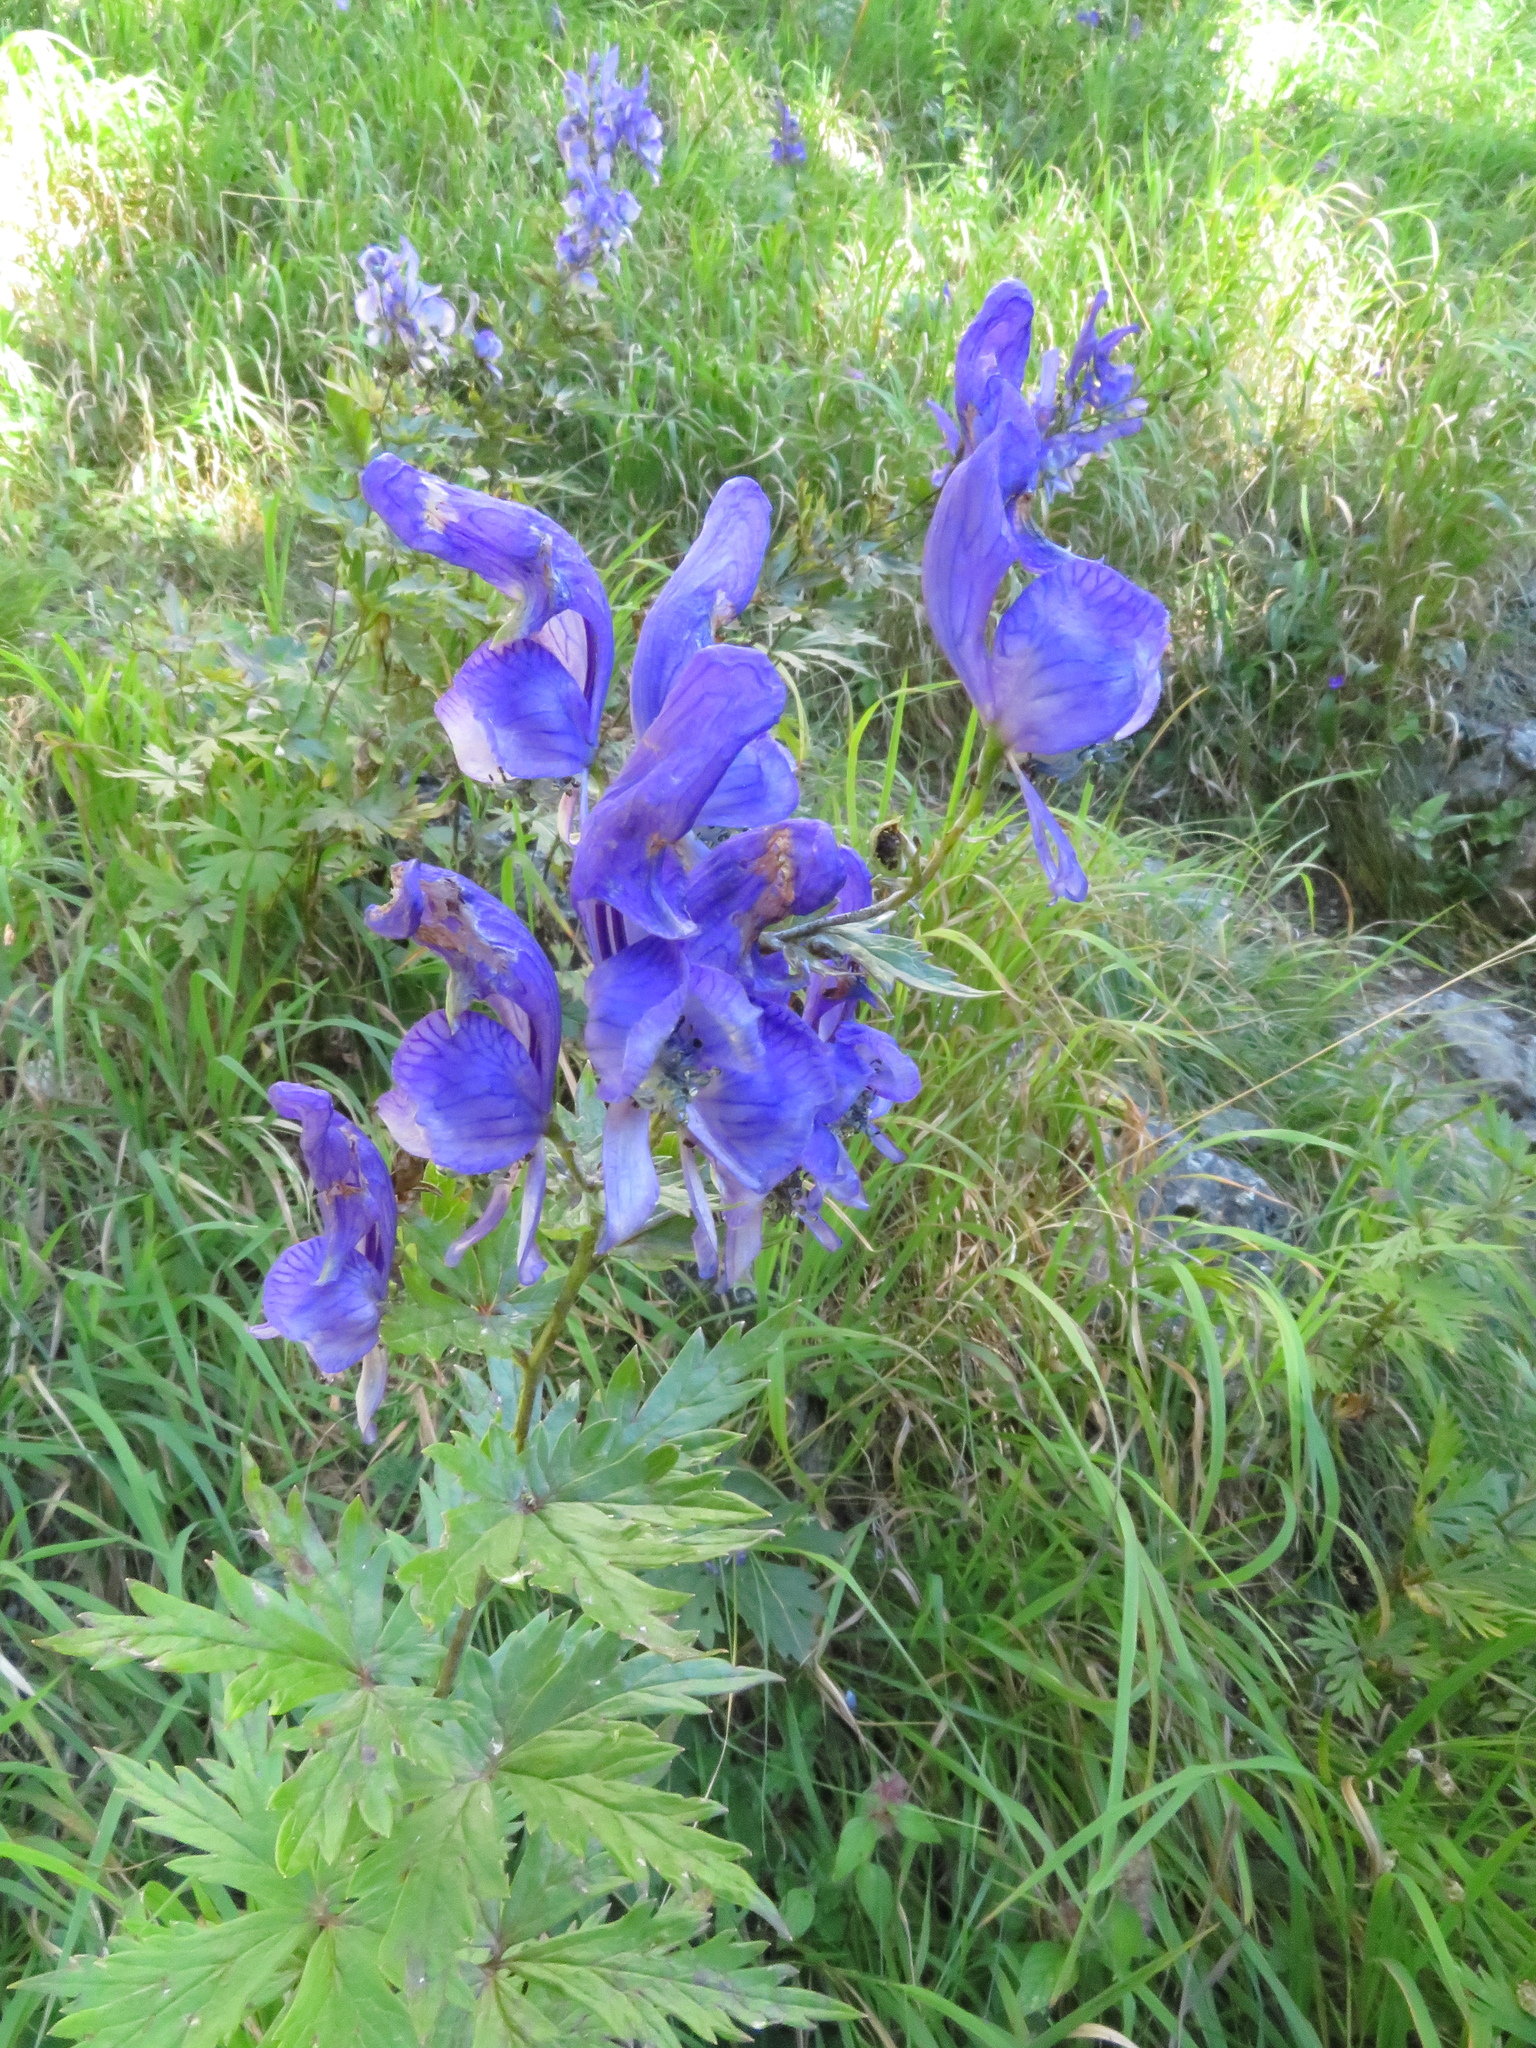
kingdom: Plantae
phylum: Tracheophyta
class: Magnoliopsida
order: Ranunculales
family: Ranunculaceae
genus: Aconitum
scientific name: Aconitum variegatum
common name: Manchurian monkshood
